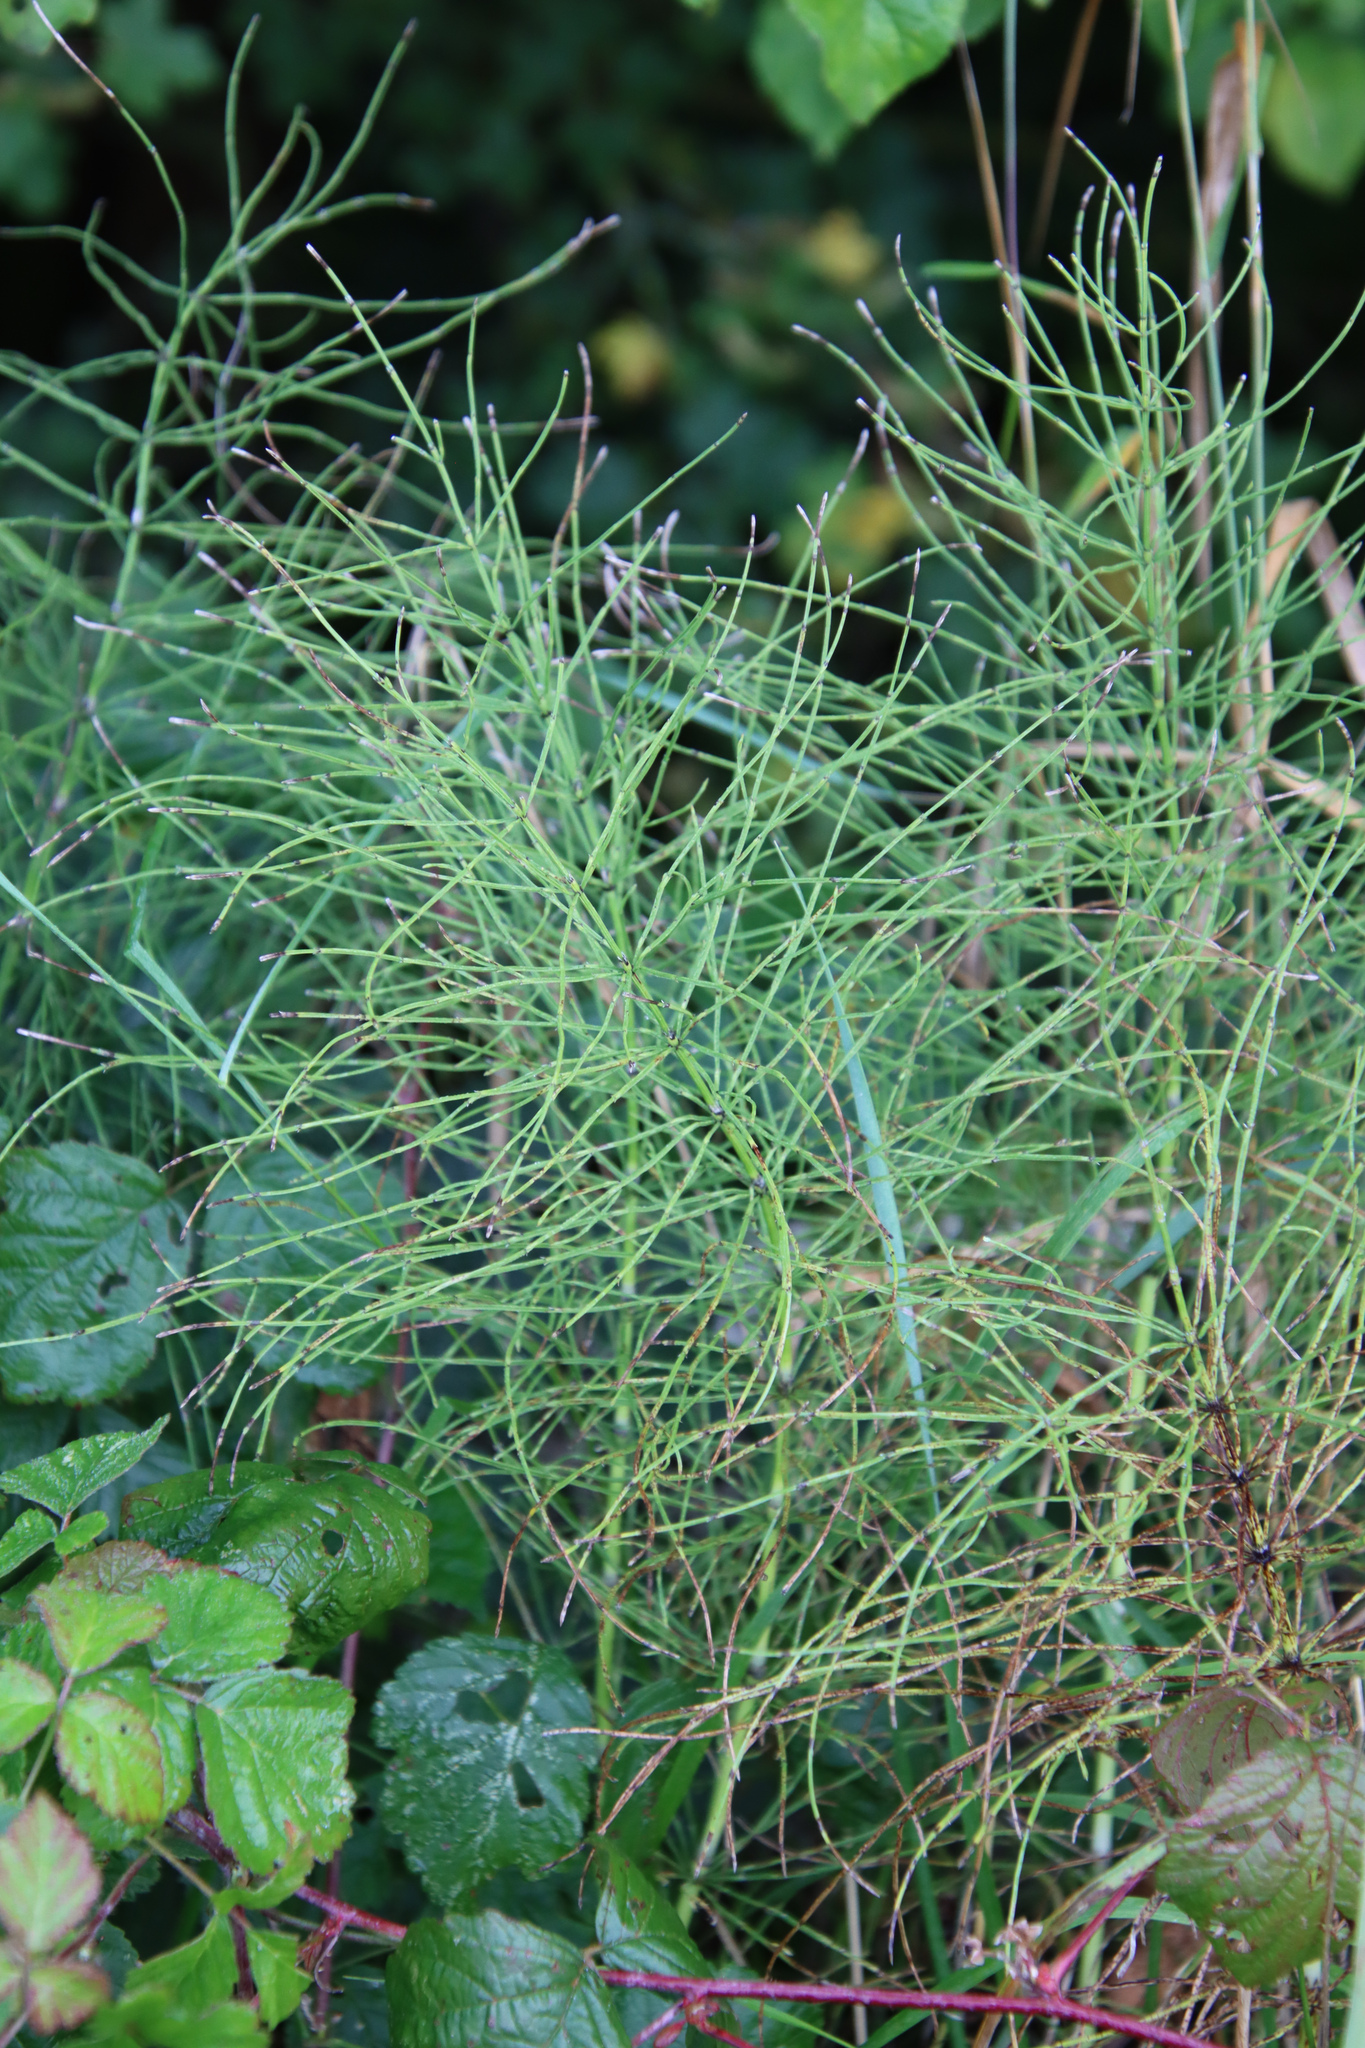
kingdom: Plantae
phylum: Tracheophyta
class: Polypodiopsida
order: Equisetales
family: Equisetaceae
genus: Equisetum
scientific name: Equisetum arvense
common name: Field horsetail
